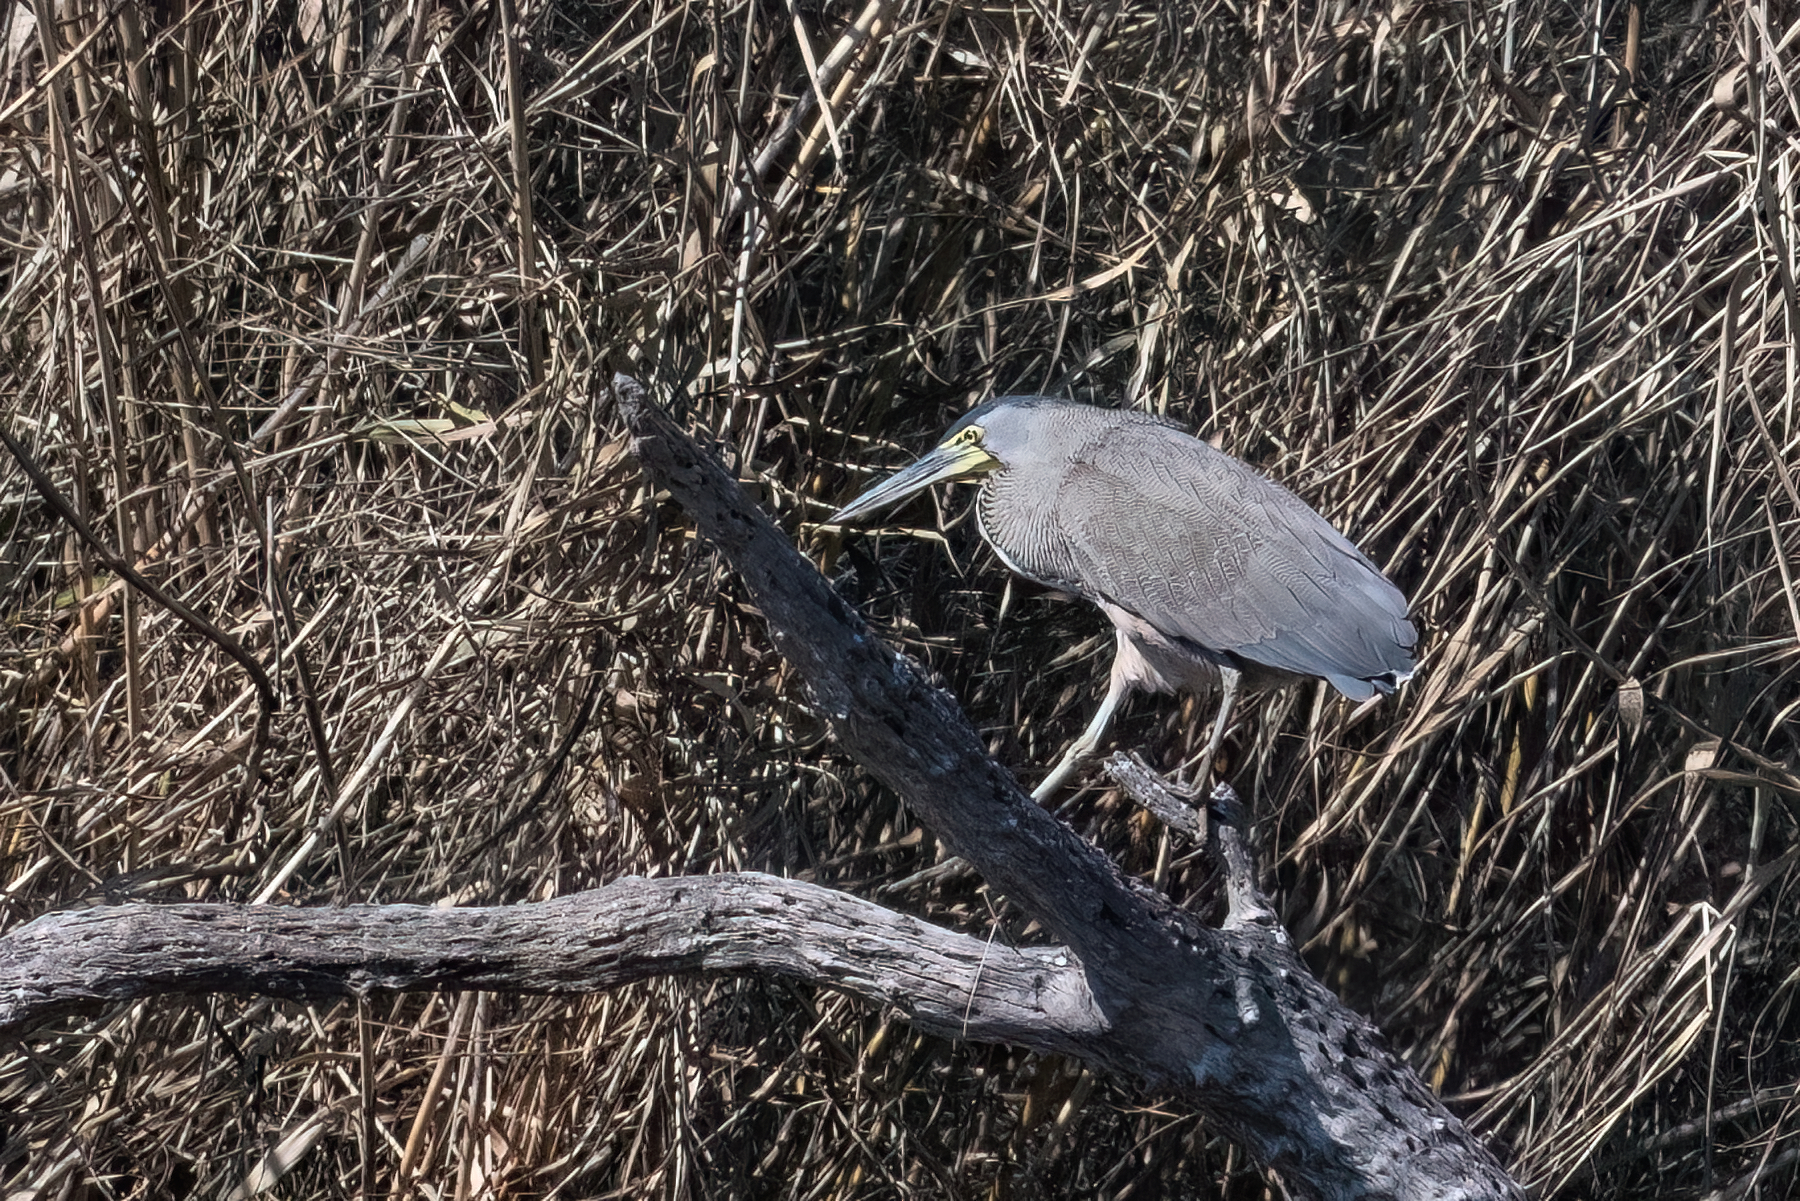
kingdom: Animalia
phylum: Chordata
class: Aves
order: Pelecaniformes
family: Ardeidae
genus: Tigrisoma
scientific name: Tigrisoma mexicanum
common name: Bare-throated tiger-heron
